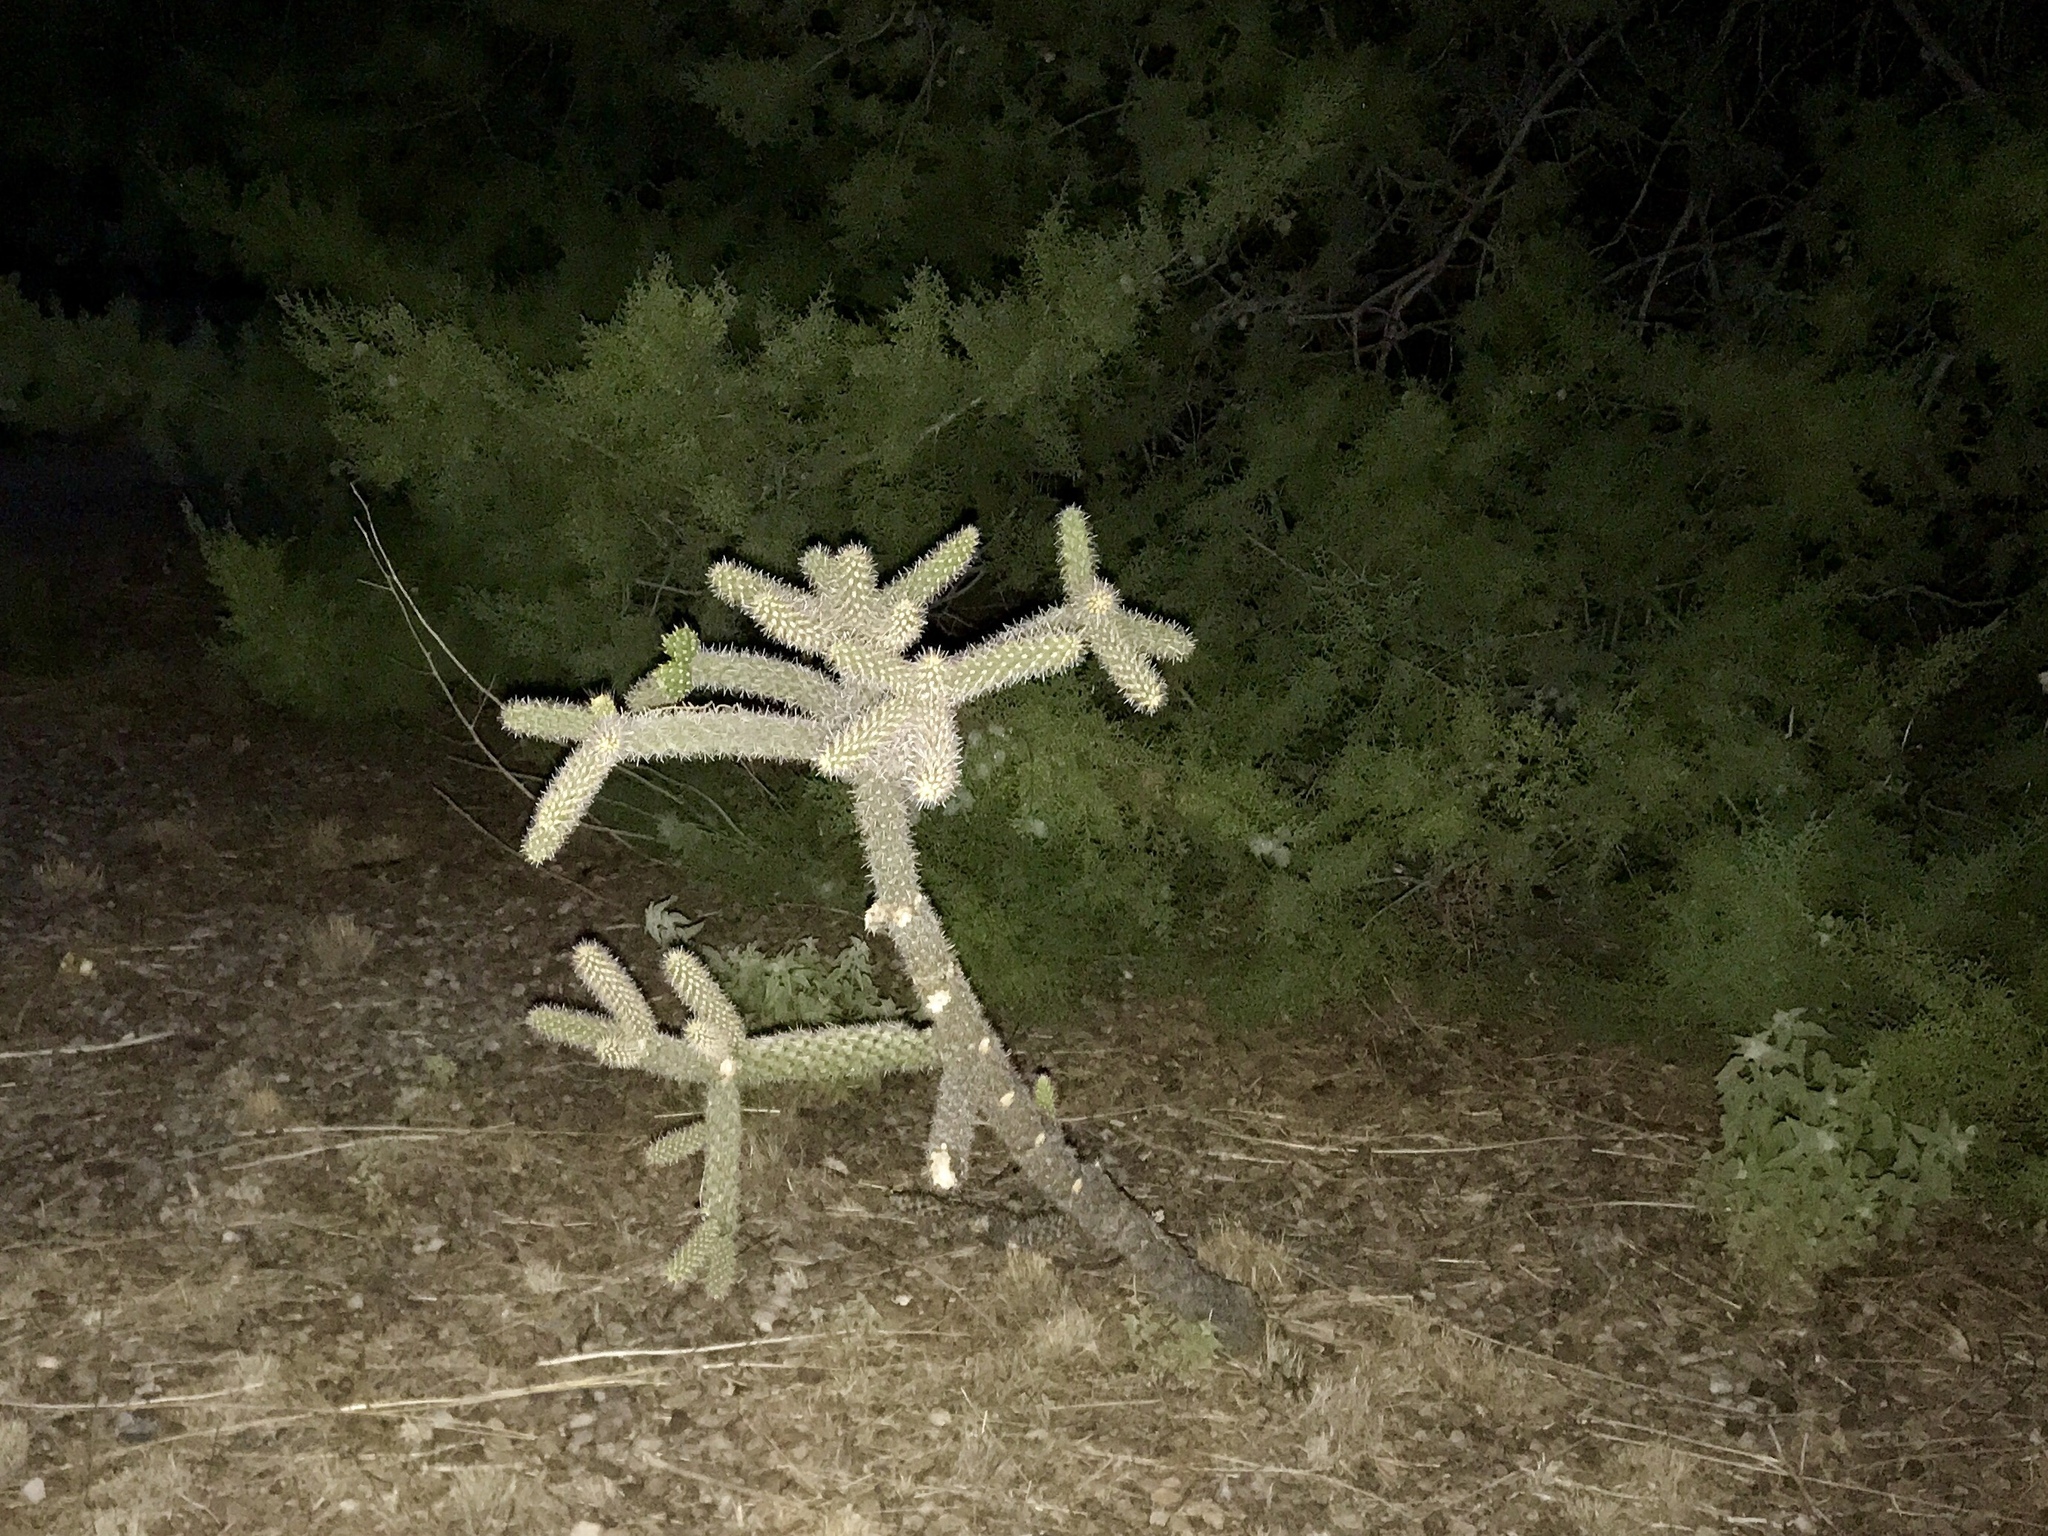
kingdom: Plantae
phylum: Tracheophyta
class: Magnoliopsida
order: Caryophyllales
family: Cactaceae
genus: Cylindropuntia
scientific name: Cylindropuntia imbricata
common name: Candelabrum cactus
